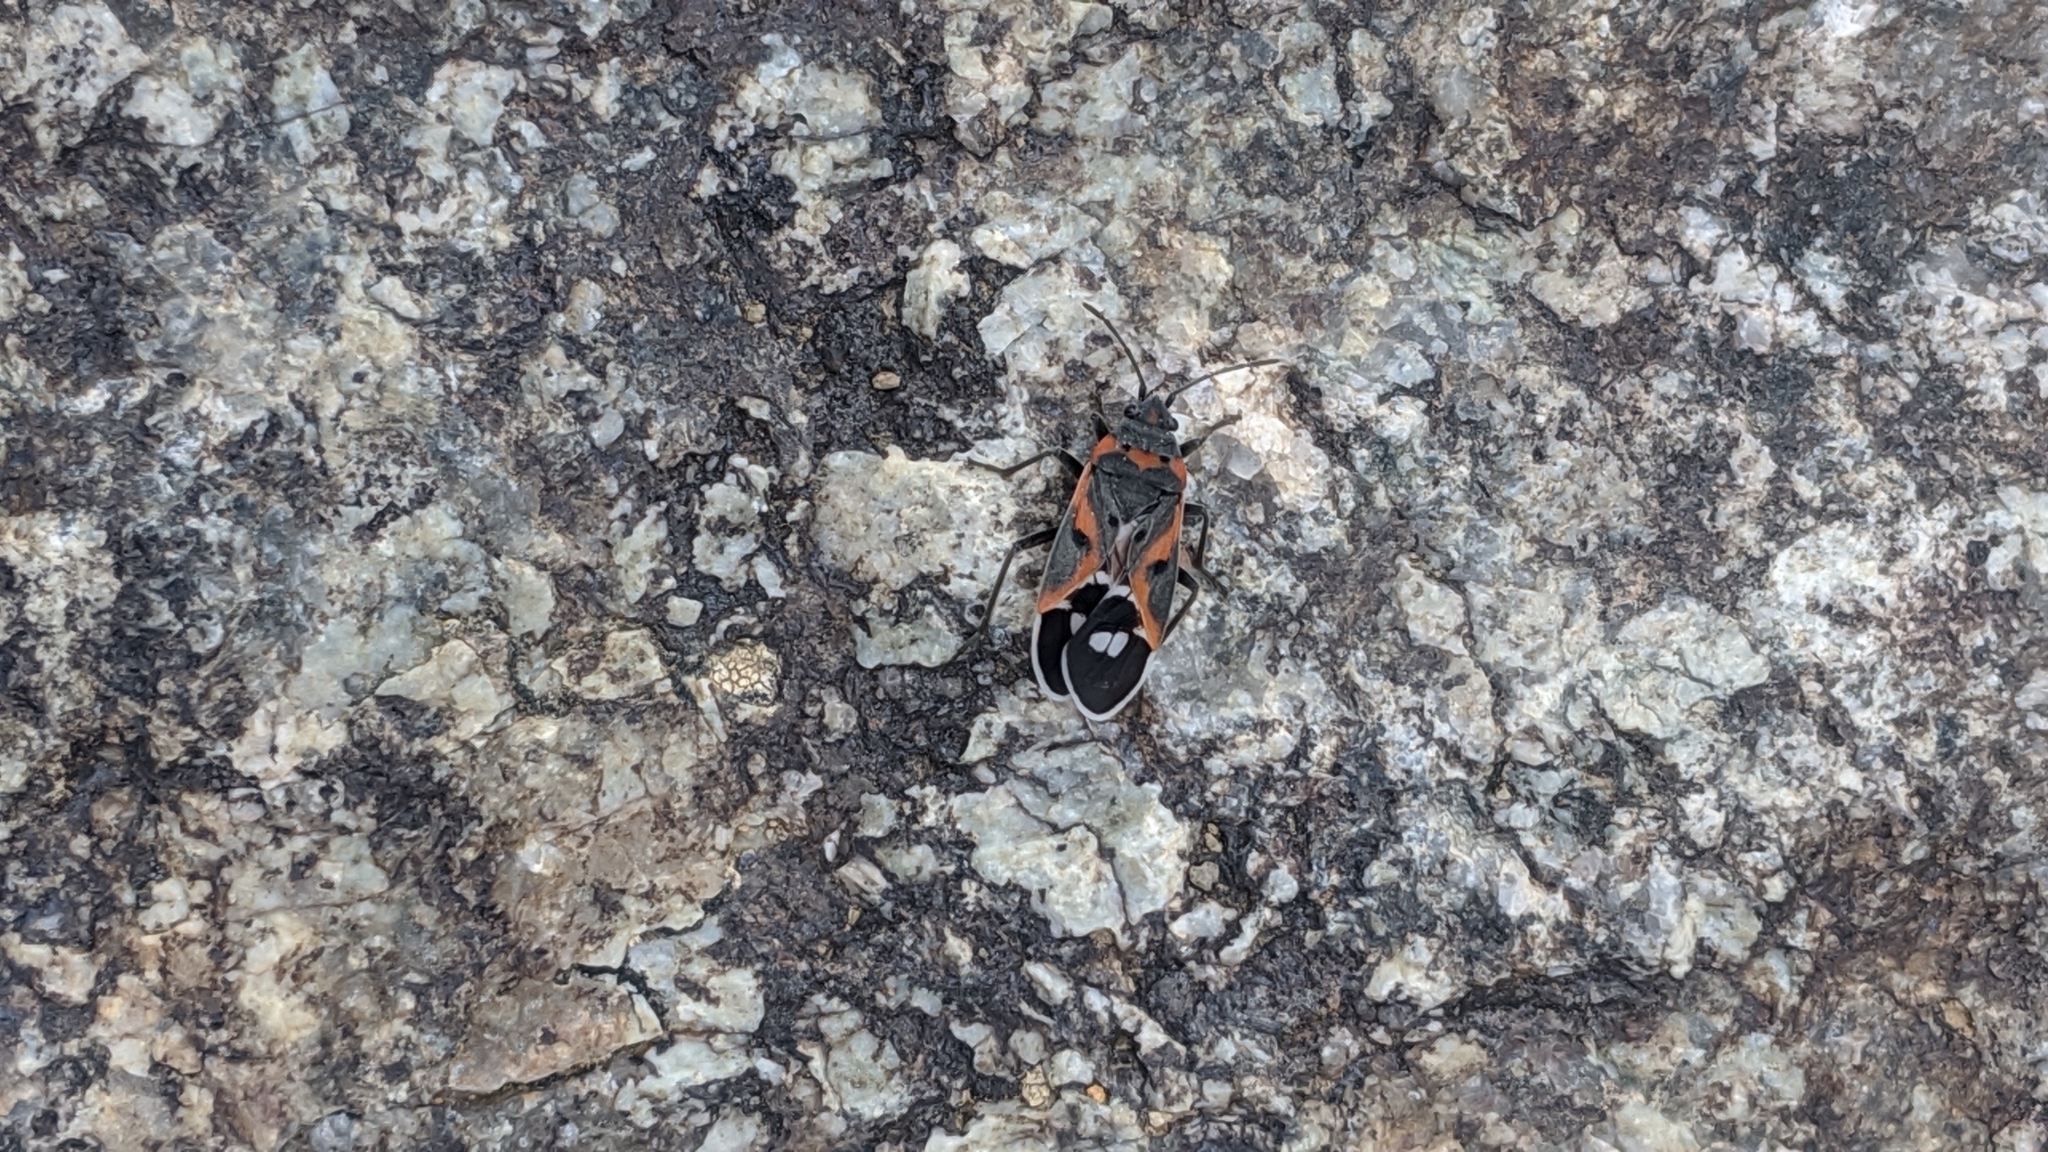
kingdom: Animalia
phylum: Arthropoda
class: Insecta
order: Hemiptera
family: Lygaeidae
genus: Lygaeus
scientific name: Lygaeus kalmii
